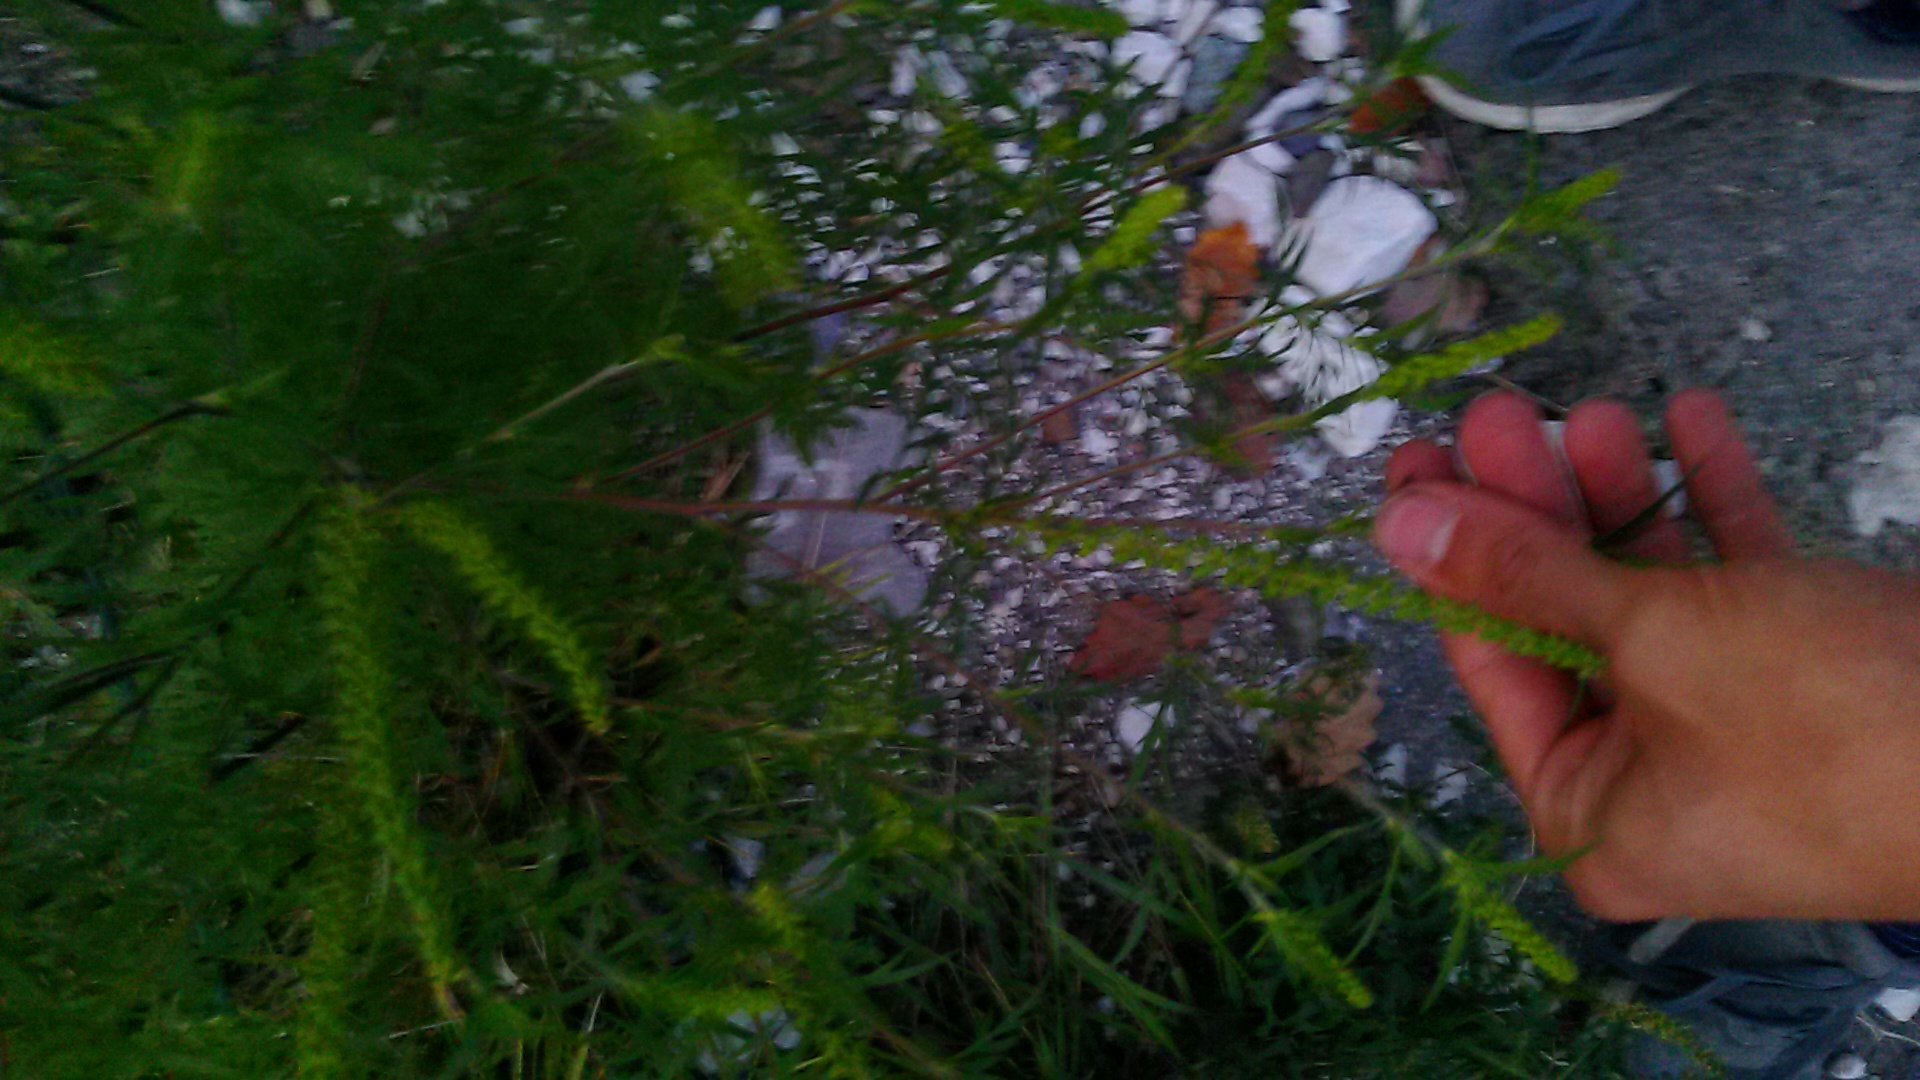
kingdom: Plantae
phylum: Tracheophyta
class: Magnoliopsida
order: Asterales
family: Asteraceae
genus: Ambrosia
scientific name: Ambrosia artemisiifolia
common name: Annual ragweed
